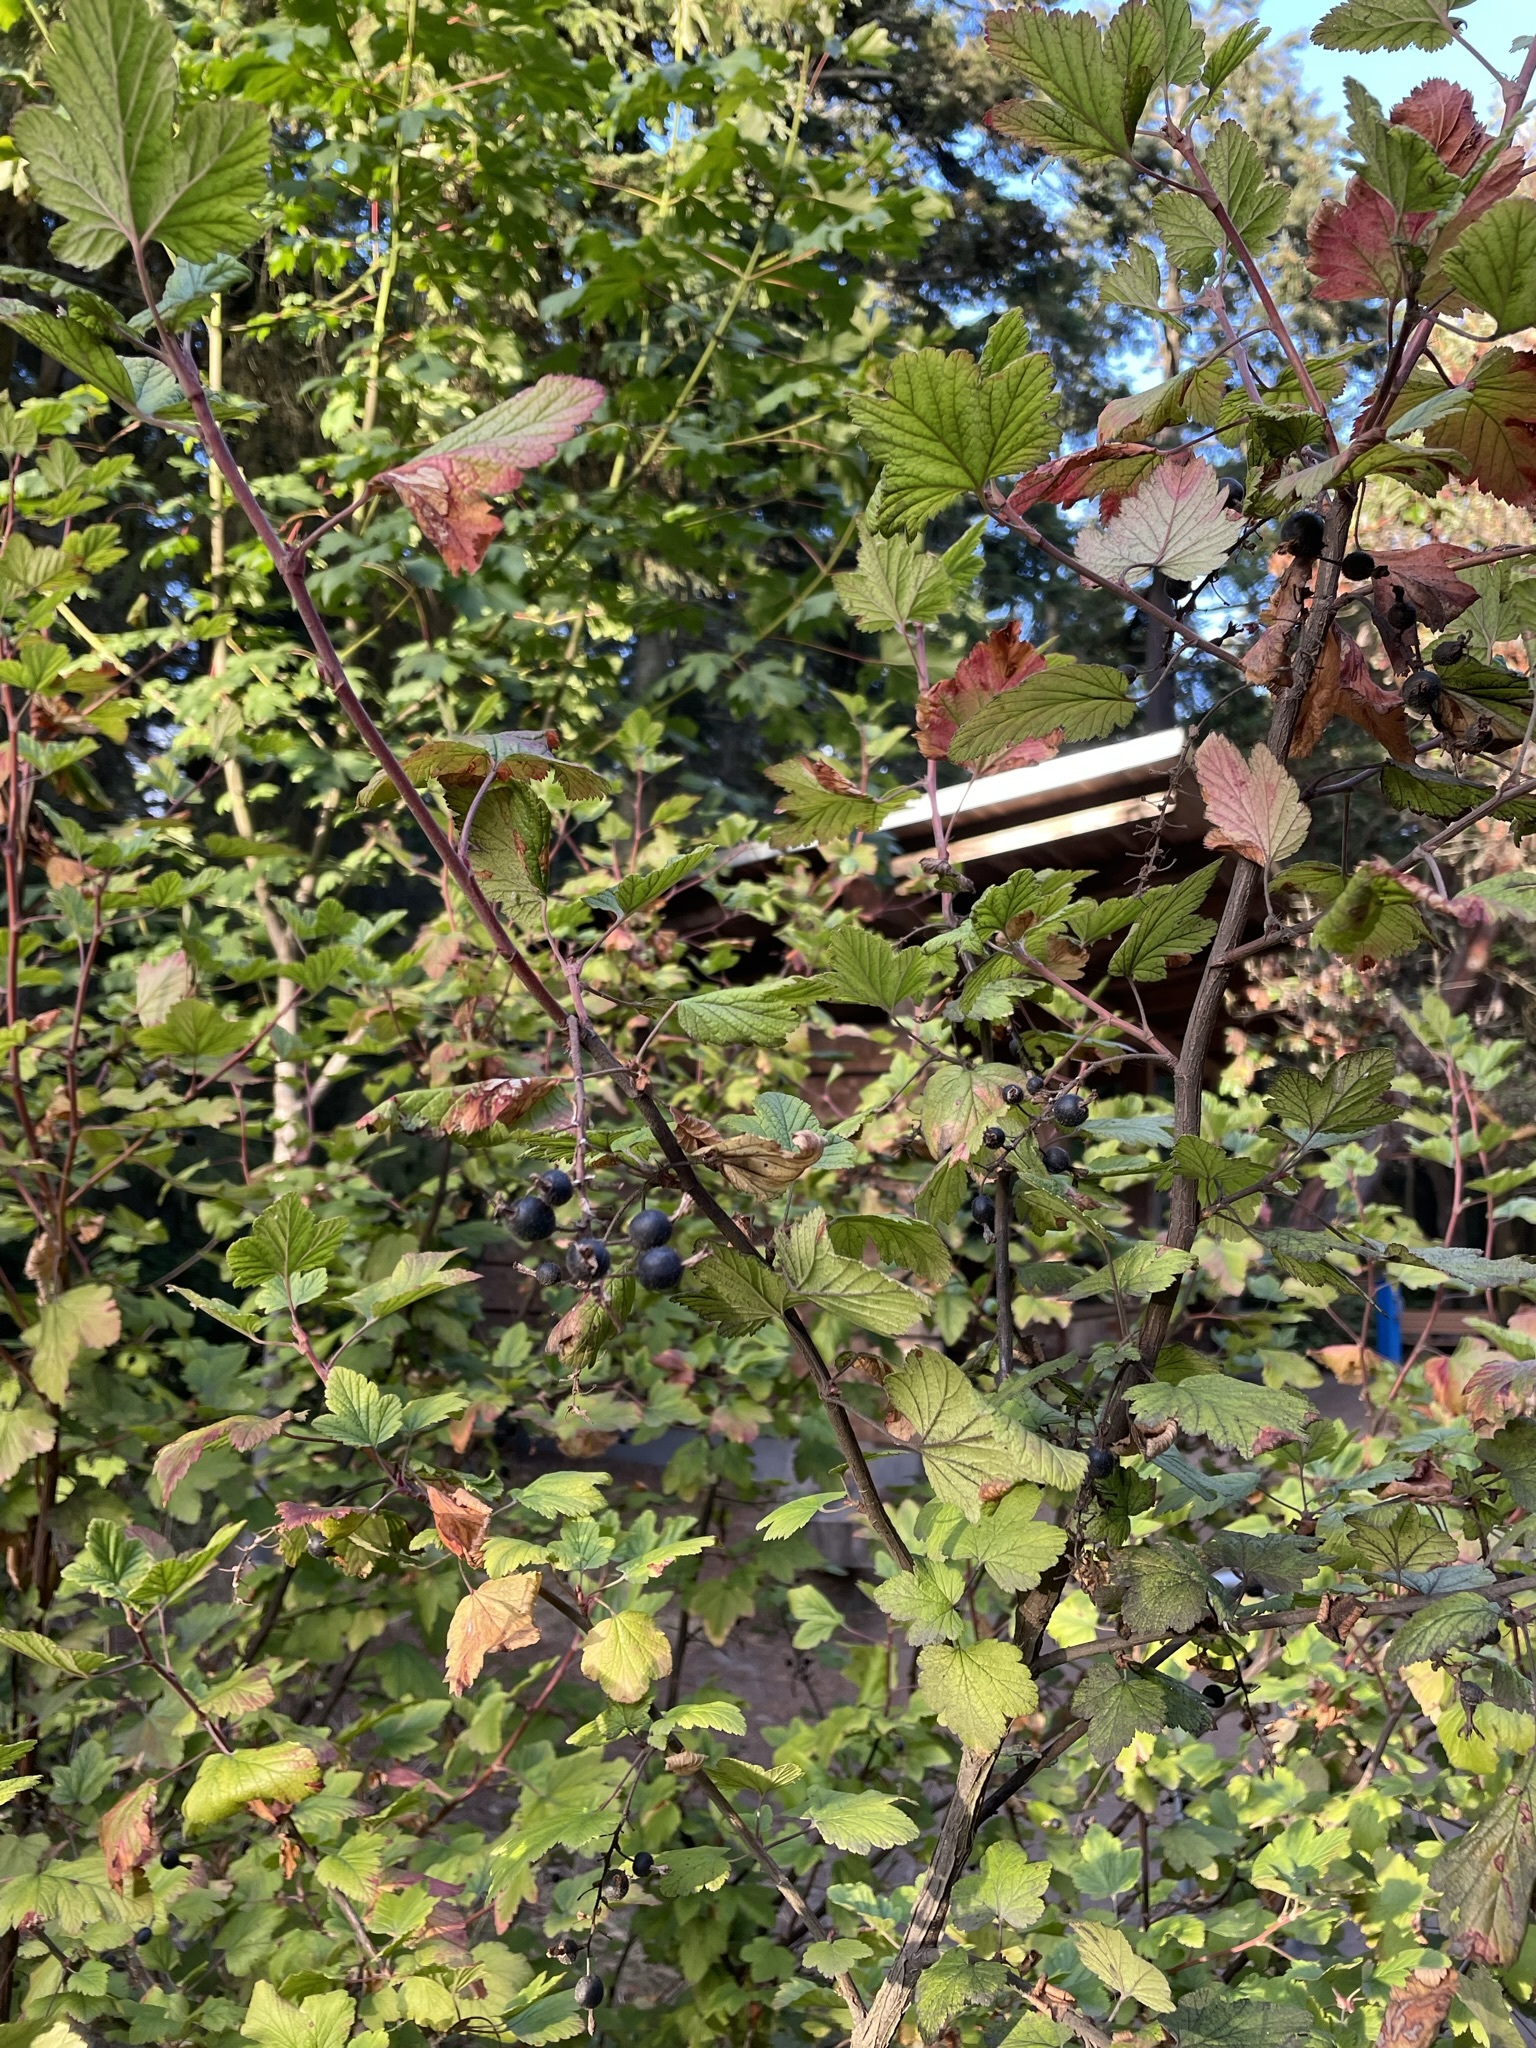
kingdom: Plantae
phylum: Tracheophyta
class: Magnoliopsida
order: Saxifragales
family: Grossulariaceae
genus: Ribes
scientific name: Ribes sanguineum
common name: Flowering currant
